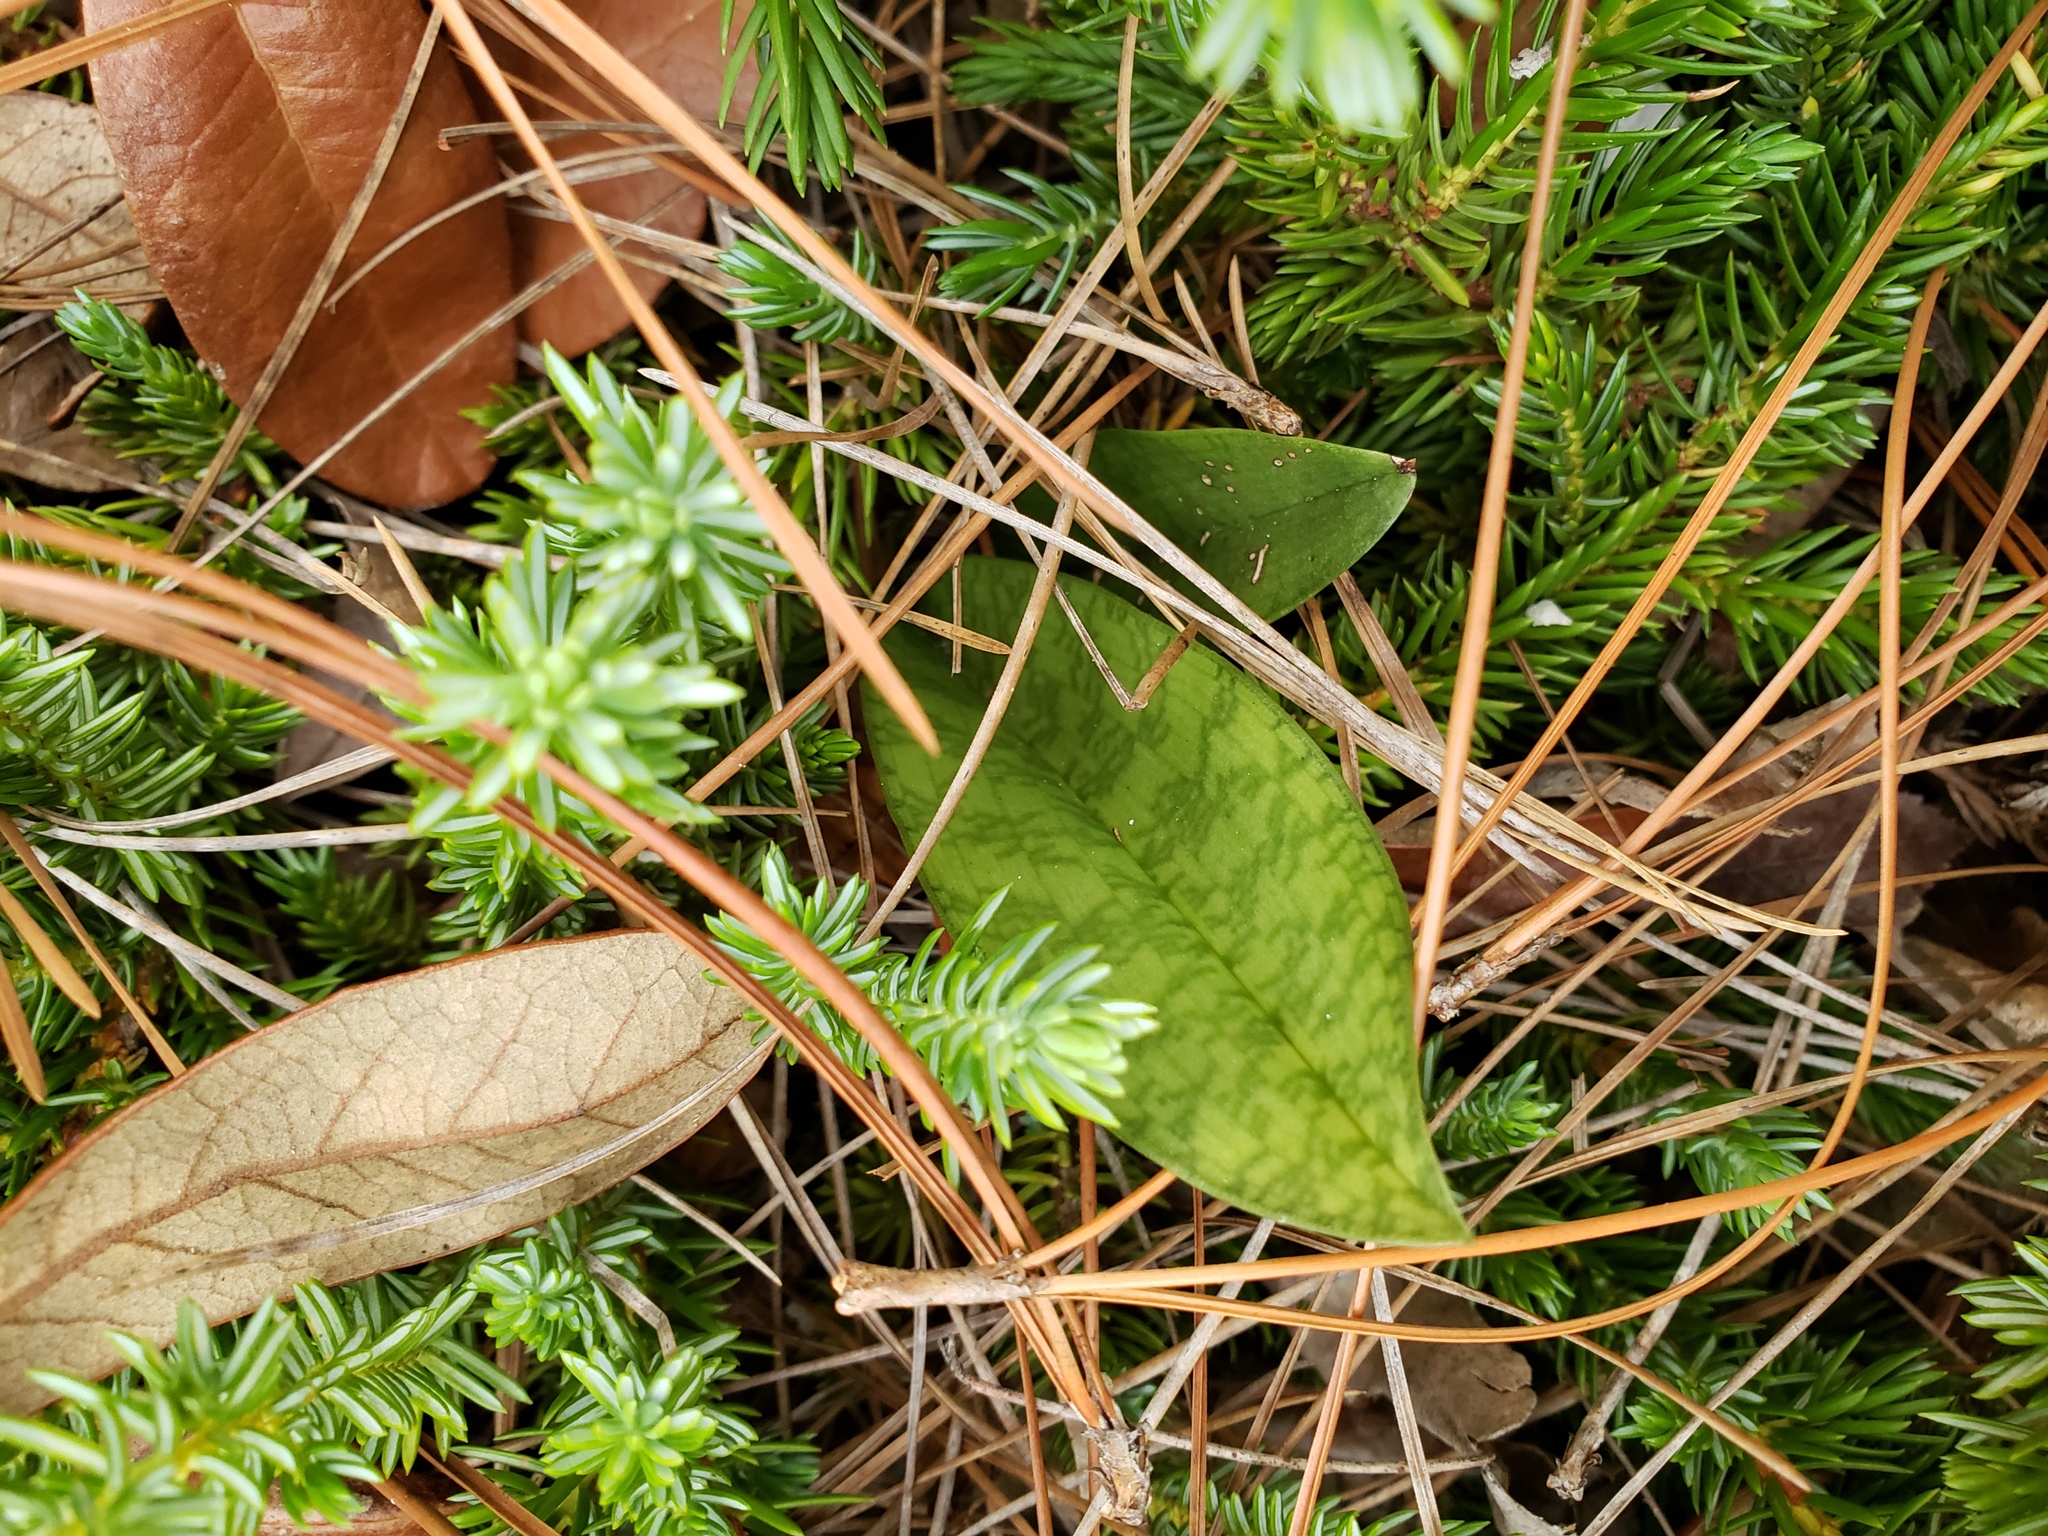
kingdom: Plantae
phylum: Tracheophyta
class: Liliopsida
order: Asparagales
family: Orchidaceae
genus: Eulophia
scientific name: Eulophia maculata
